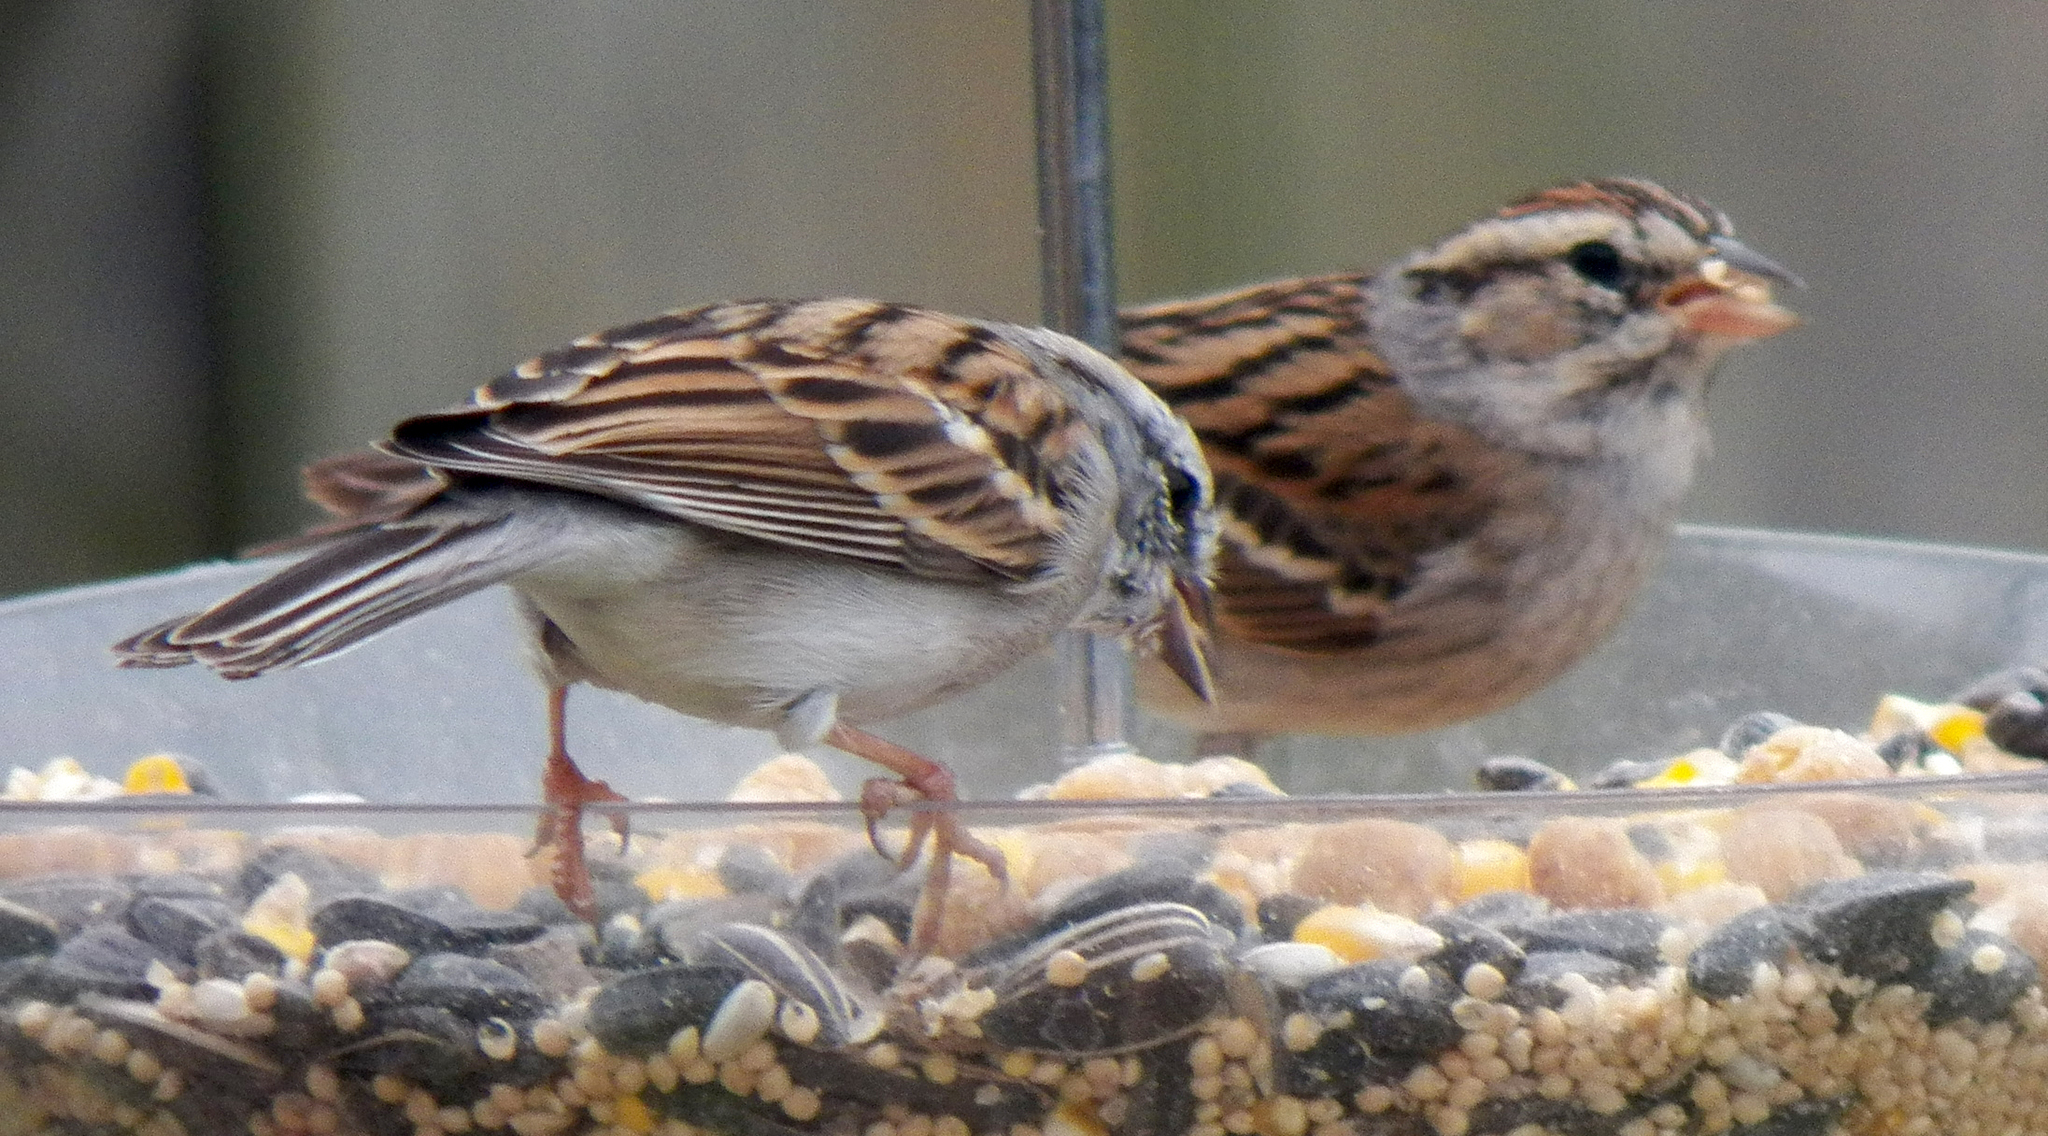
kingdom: Animalia
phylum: Chordata
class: Aves
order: Passeriformes
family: Passerellidae
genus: Spizella
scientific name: Spizella passerina
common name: Chipping sparrow
